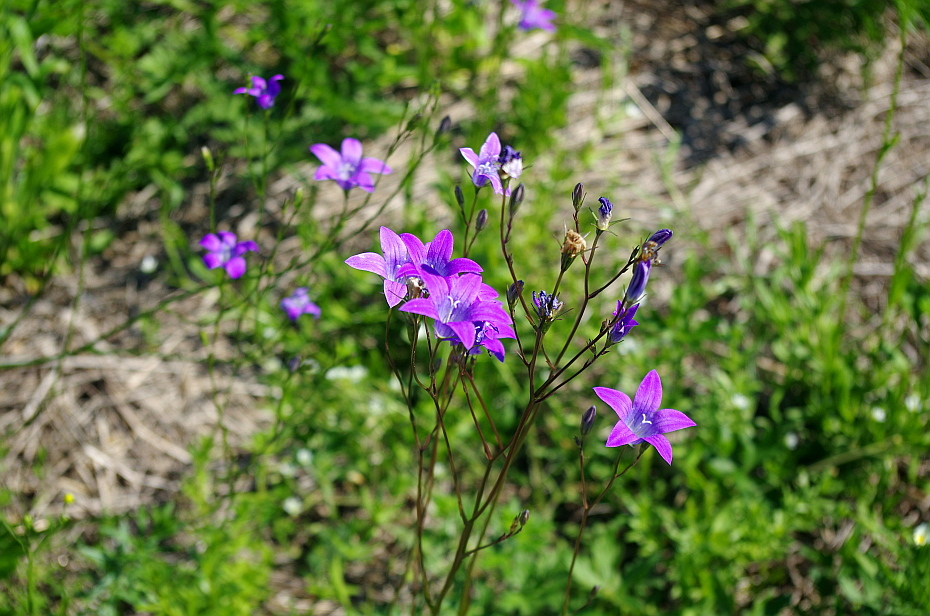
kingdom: Plantae
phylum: Tracheophyta
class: Magnoliopsida
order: Asterales
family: Campanulaceae
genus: Campanula
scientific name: Campanula patula
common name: Spreading bellflower
